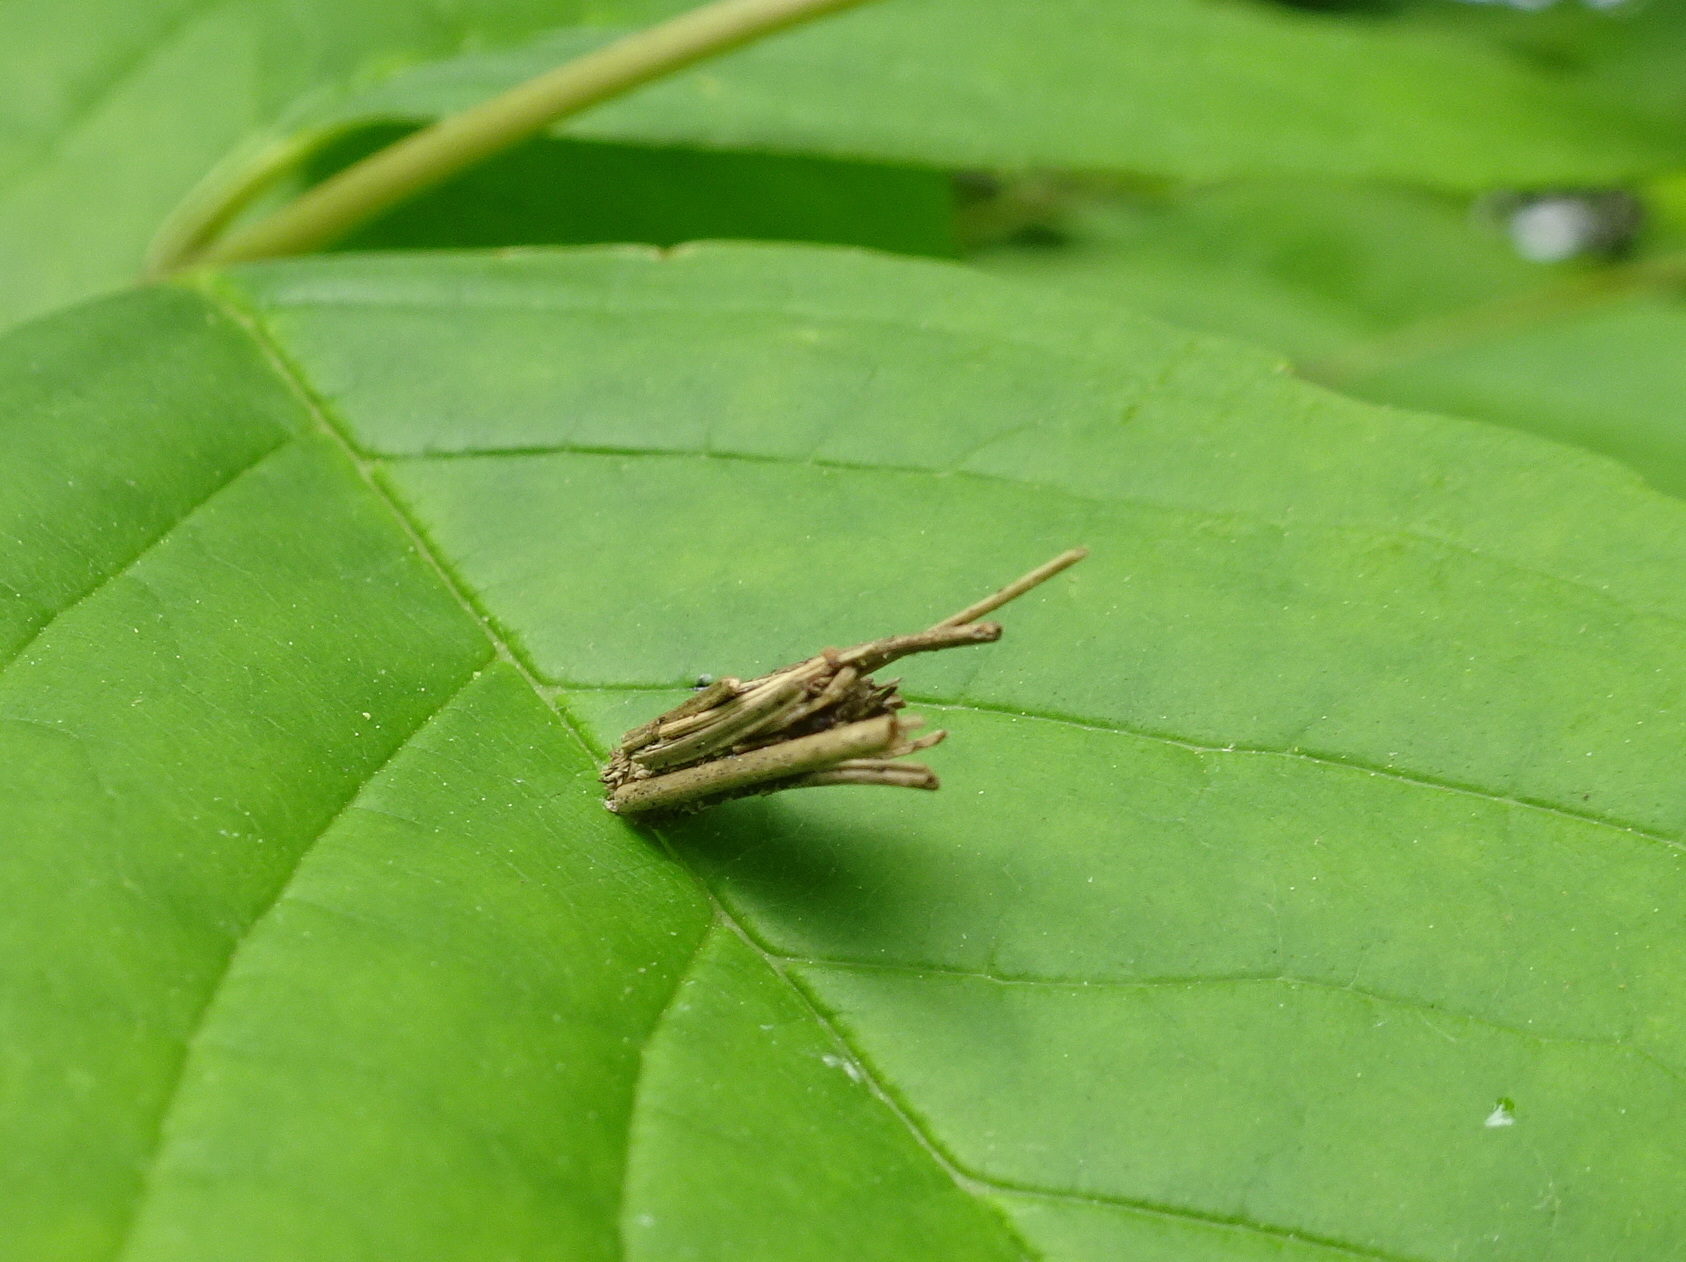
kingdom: Animalia
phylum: Arthropoda
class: Insecta
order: Lepidoptera
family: Psychidae
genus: Psyche
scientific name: Psyche casta
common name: Common sweep
